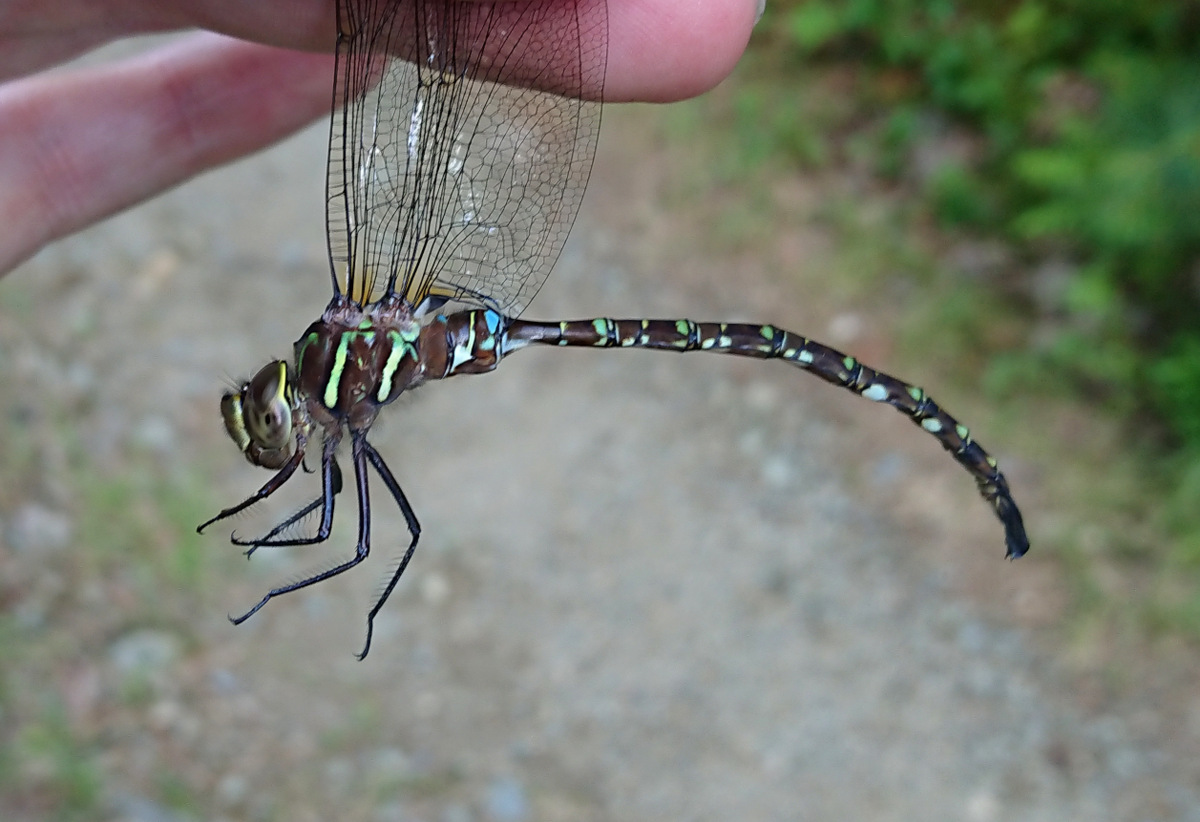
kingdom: Animalia
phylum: Arthropoda
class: Insecta
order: Odonata
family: Aeshnidae
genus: Aeshna
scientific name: Aeshna umbrosa
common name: Shadow darner
